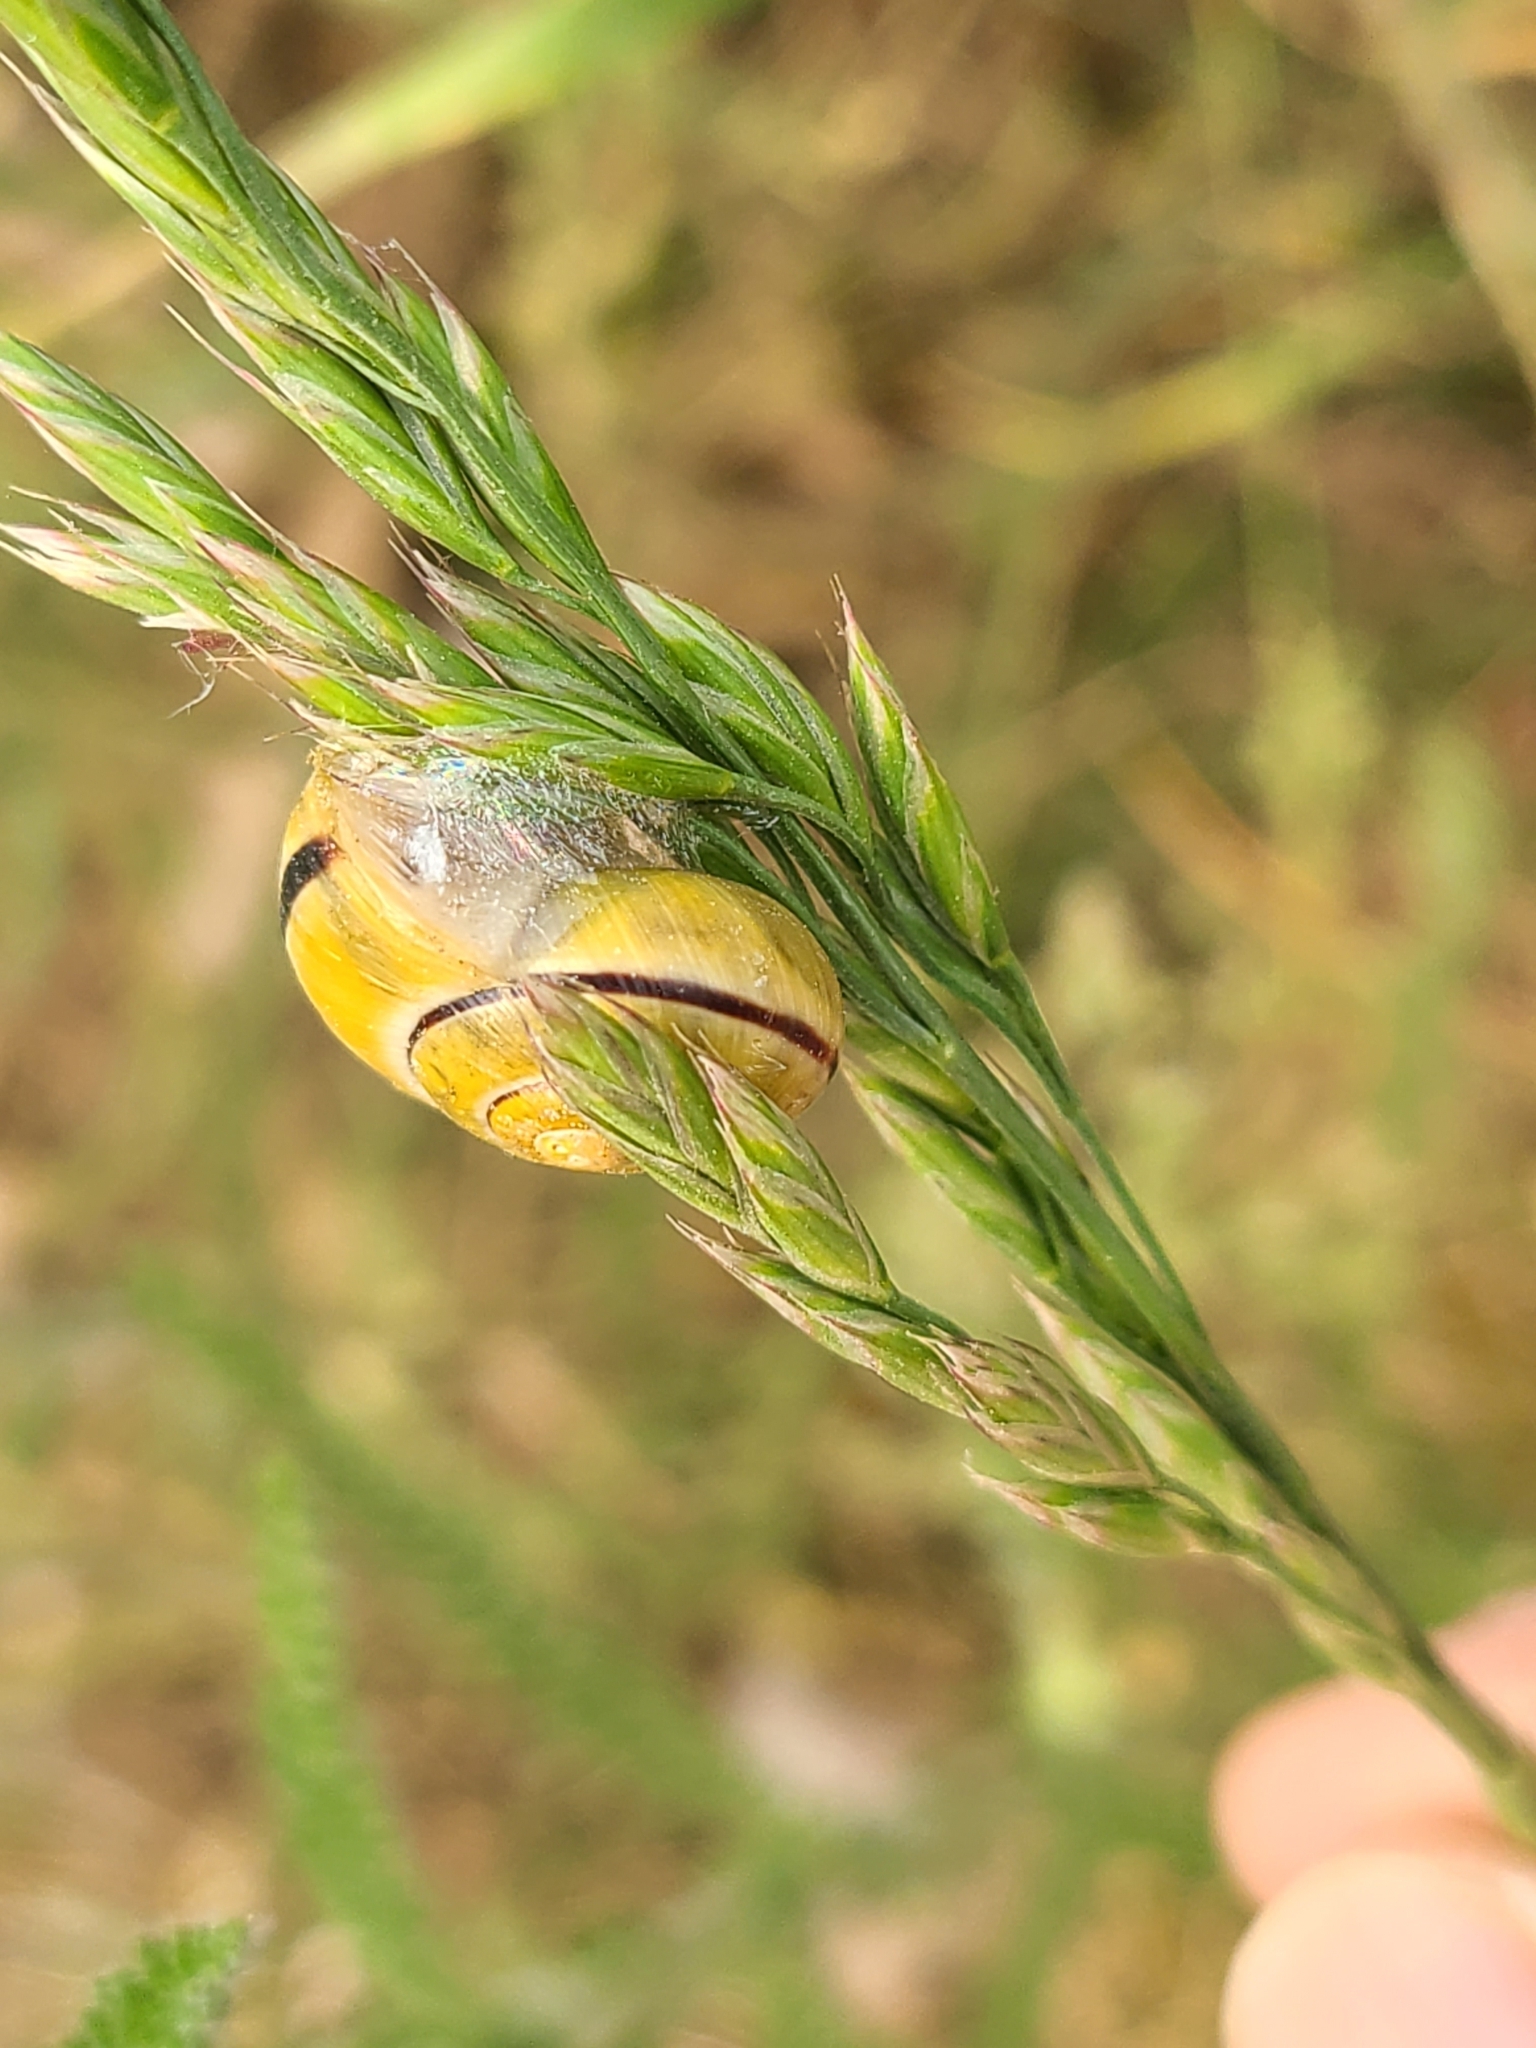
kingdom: Animalia
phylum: Mollusca
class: Gastropoda
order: Stylommatophora
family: Helicidae
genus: Cepaea
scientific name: Cepaea nemoralis
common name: Grovesnail
